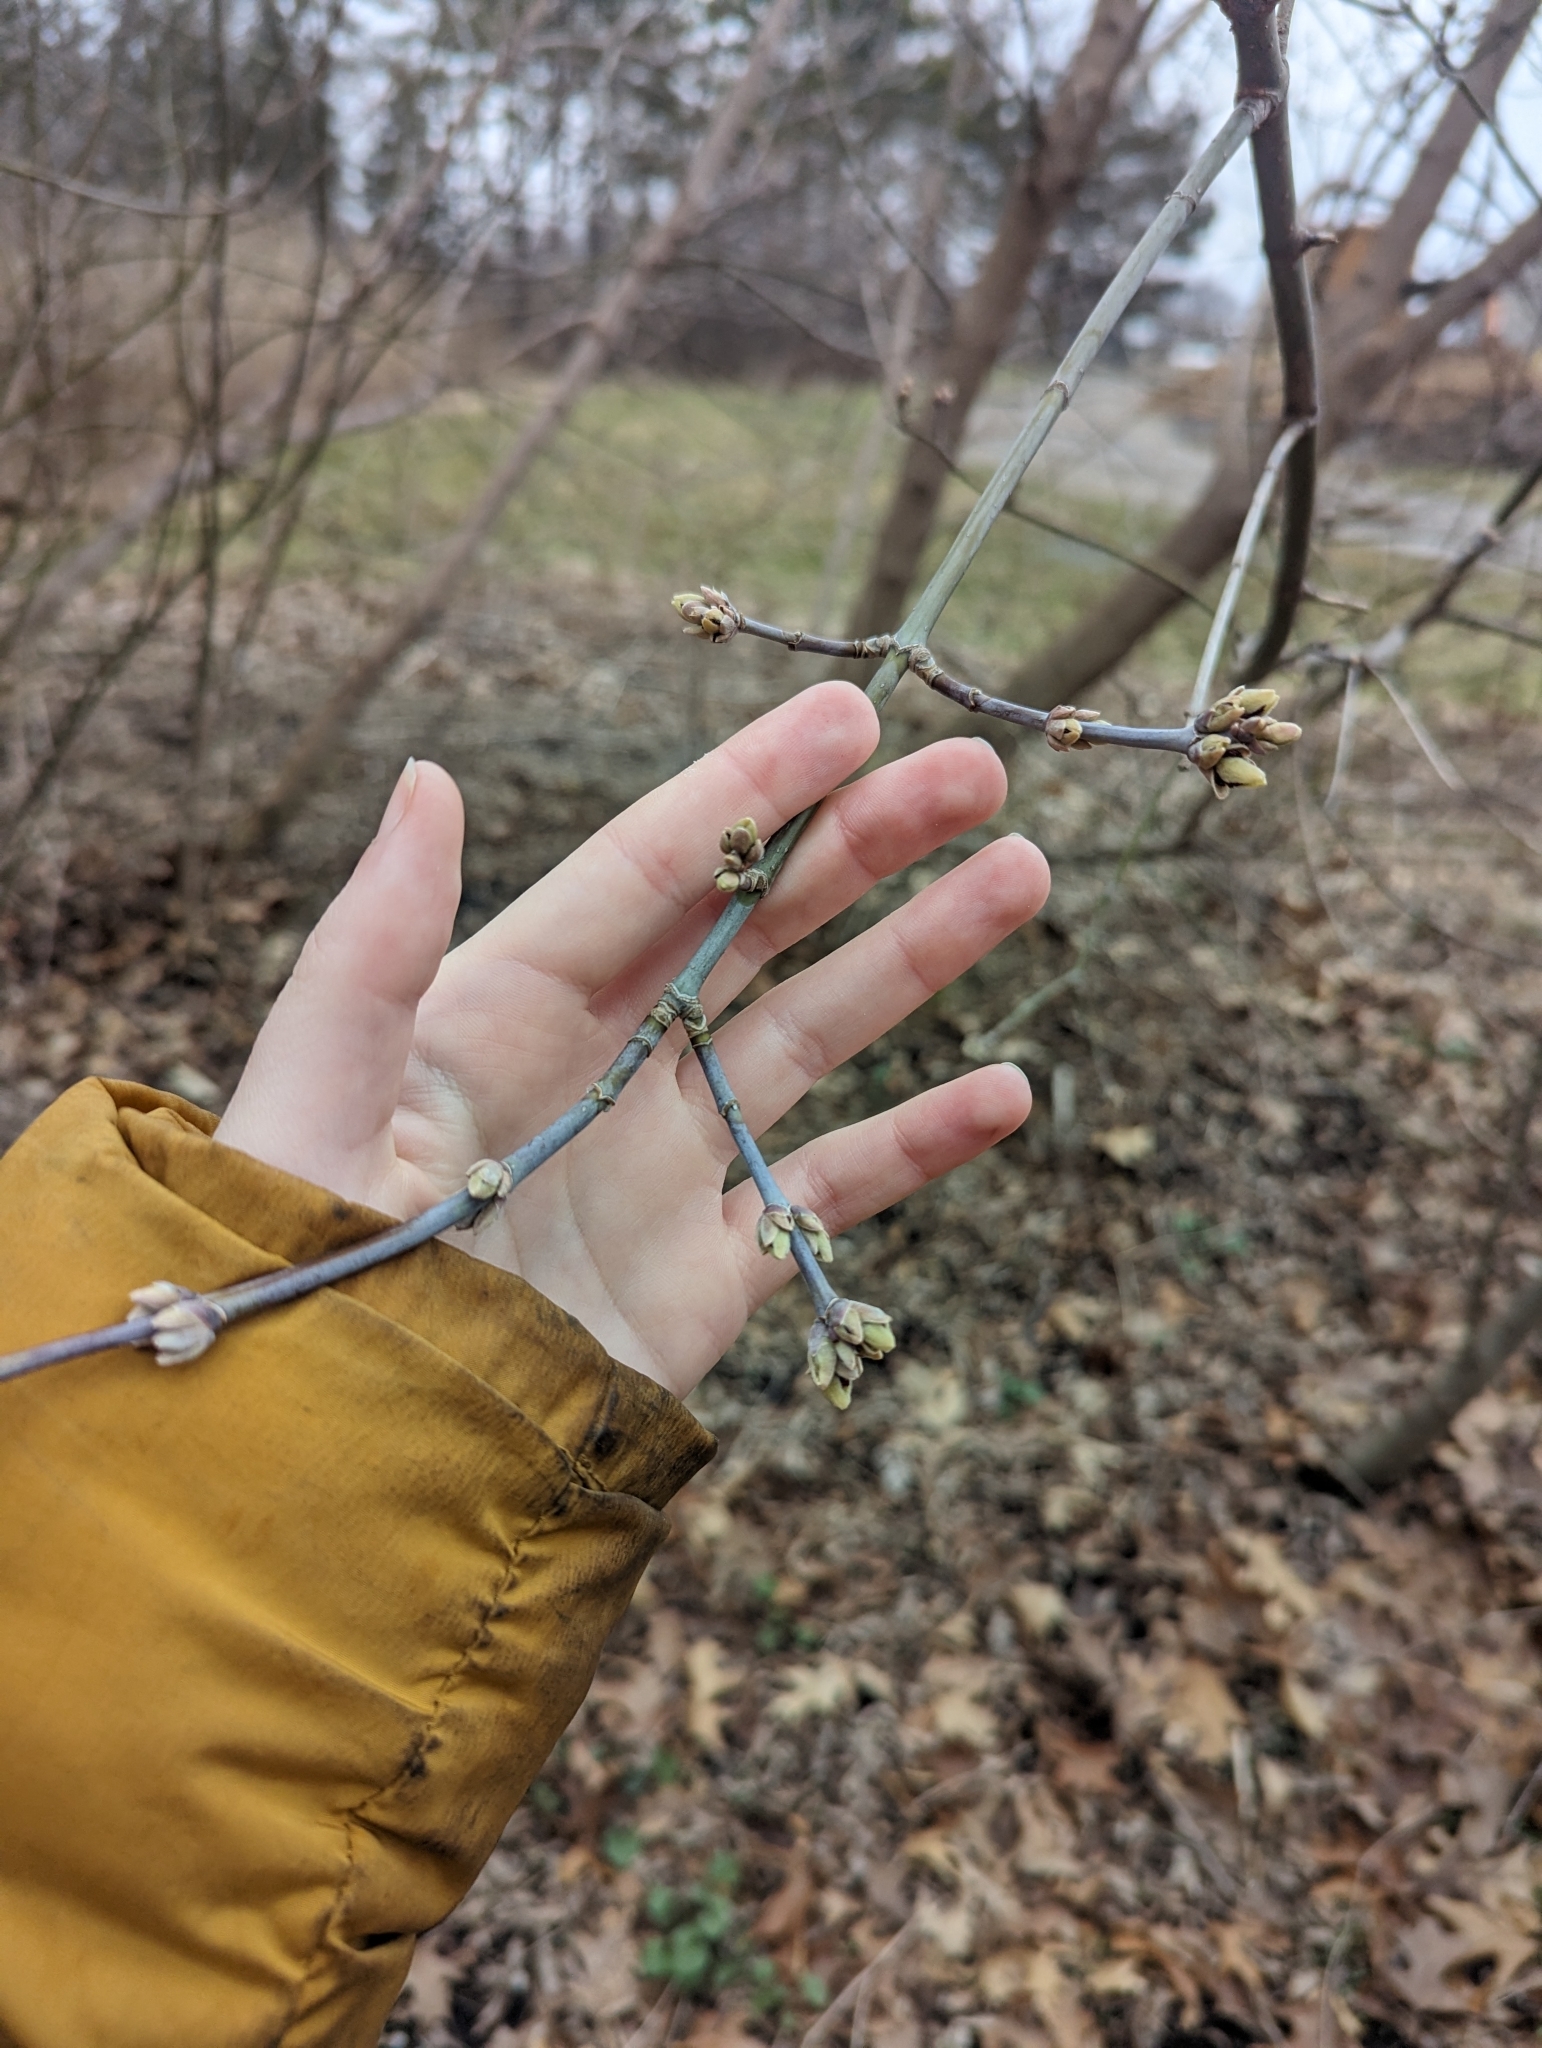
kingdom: Plantae
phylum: Tracheophyta
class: Magnoliopsida
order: Sapindales
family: Sapindaceae
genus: Acer
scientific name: Acer negundo
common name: Ashleaf maple
